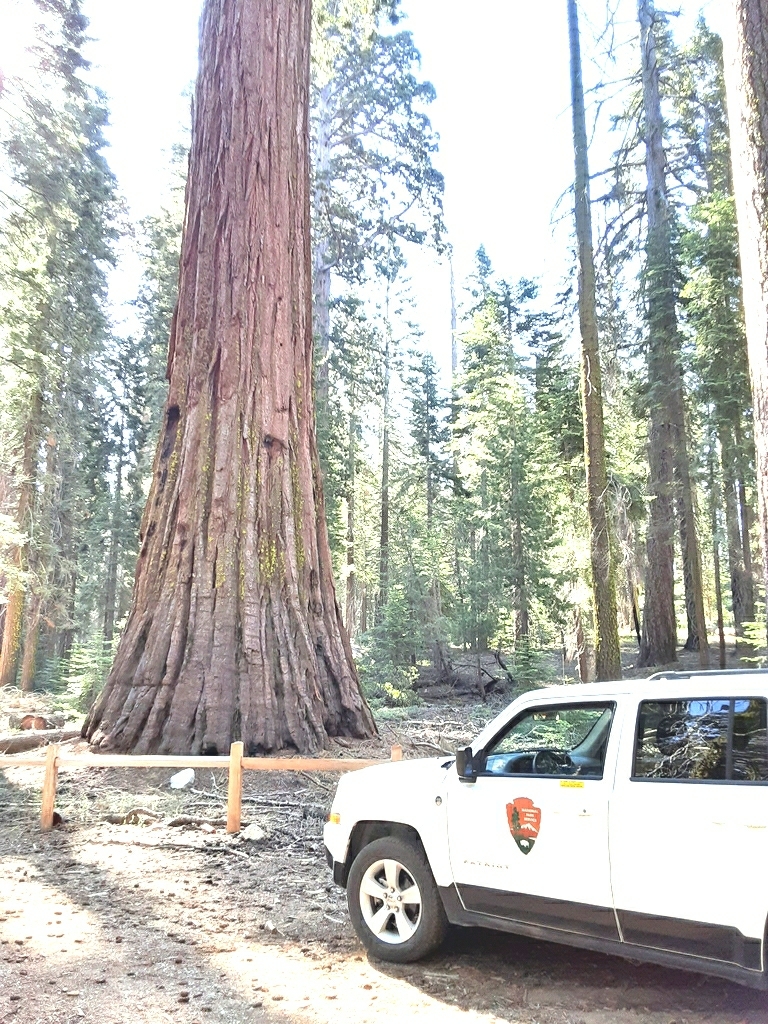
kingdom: Plantae
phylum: Tracheophyta
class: Pinopsida
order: Pinales
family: Cupressaceae
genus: Sequoiadendron
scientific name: Sequoiadendron giganteum
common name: Wellingtonia
